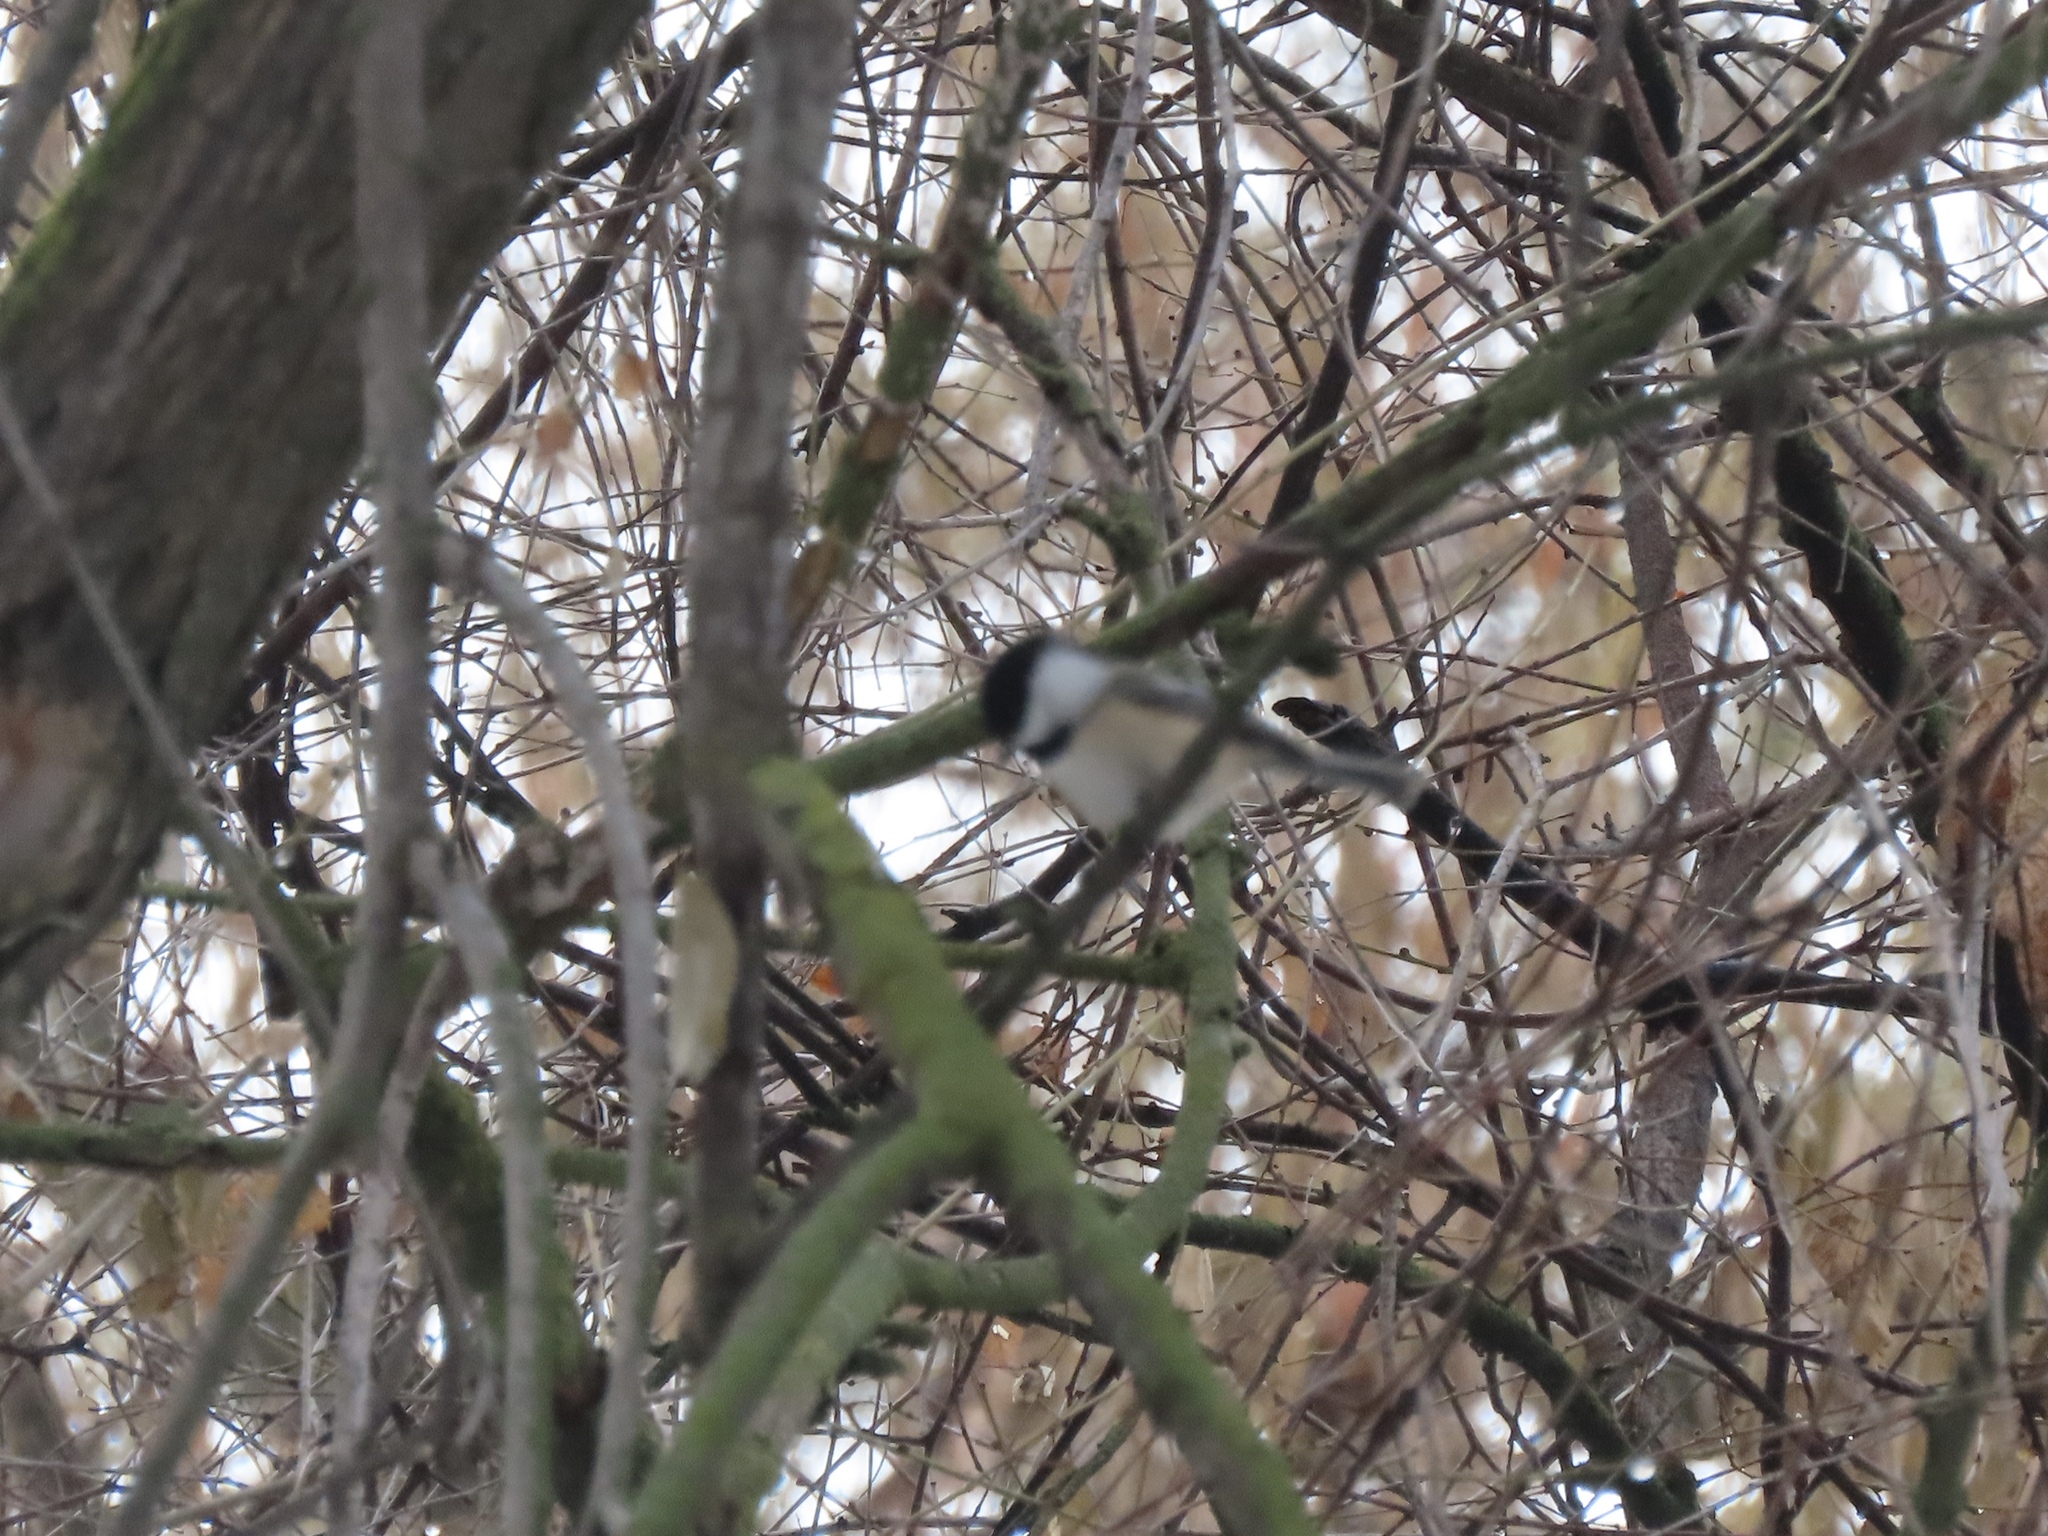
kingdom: Animalia
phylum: Chordata
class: Aves
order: Passeriformes
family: Paridae
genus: Poecile
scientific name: Poecile atricapillus
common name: Black-capped chickadee
